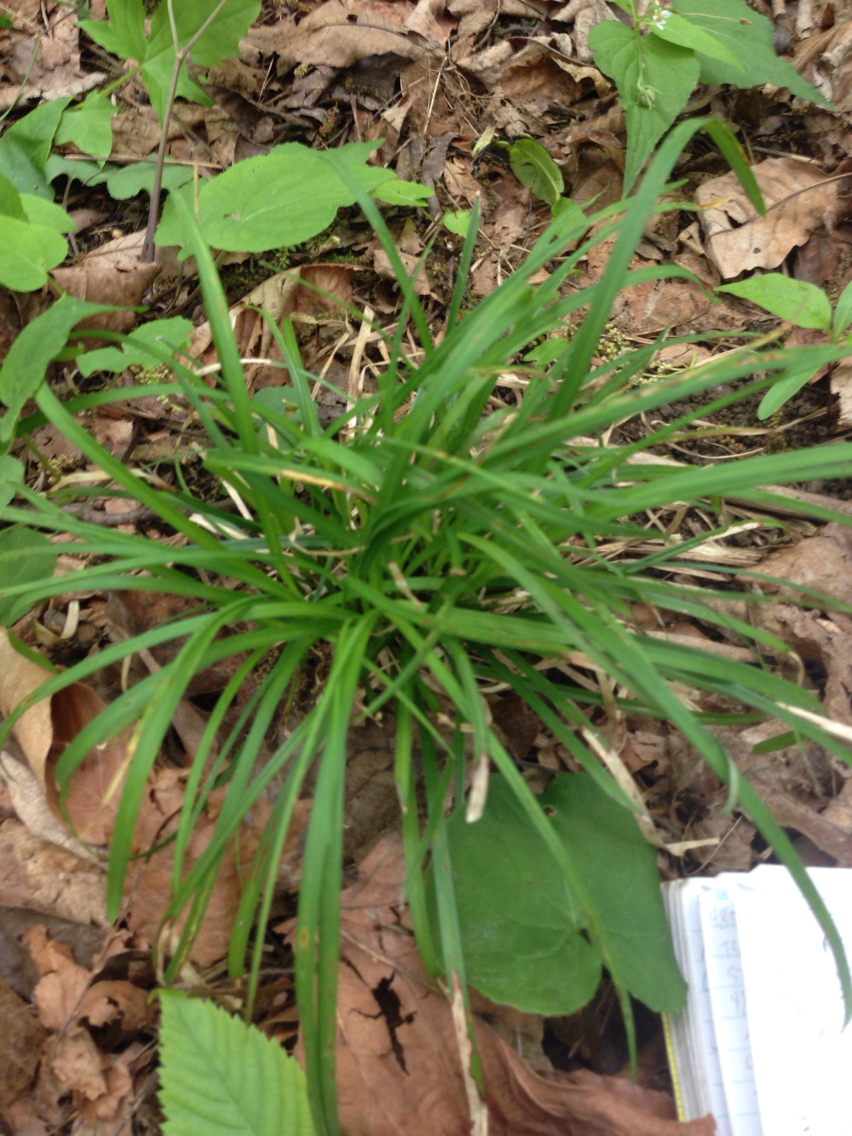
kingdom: Plantae
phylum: Tracheophyta
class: Liliopsida
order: Poales
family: Cyperaceae
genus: Carex
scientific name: Carex pedunculata
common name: Pedunculate sedge
